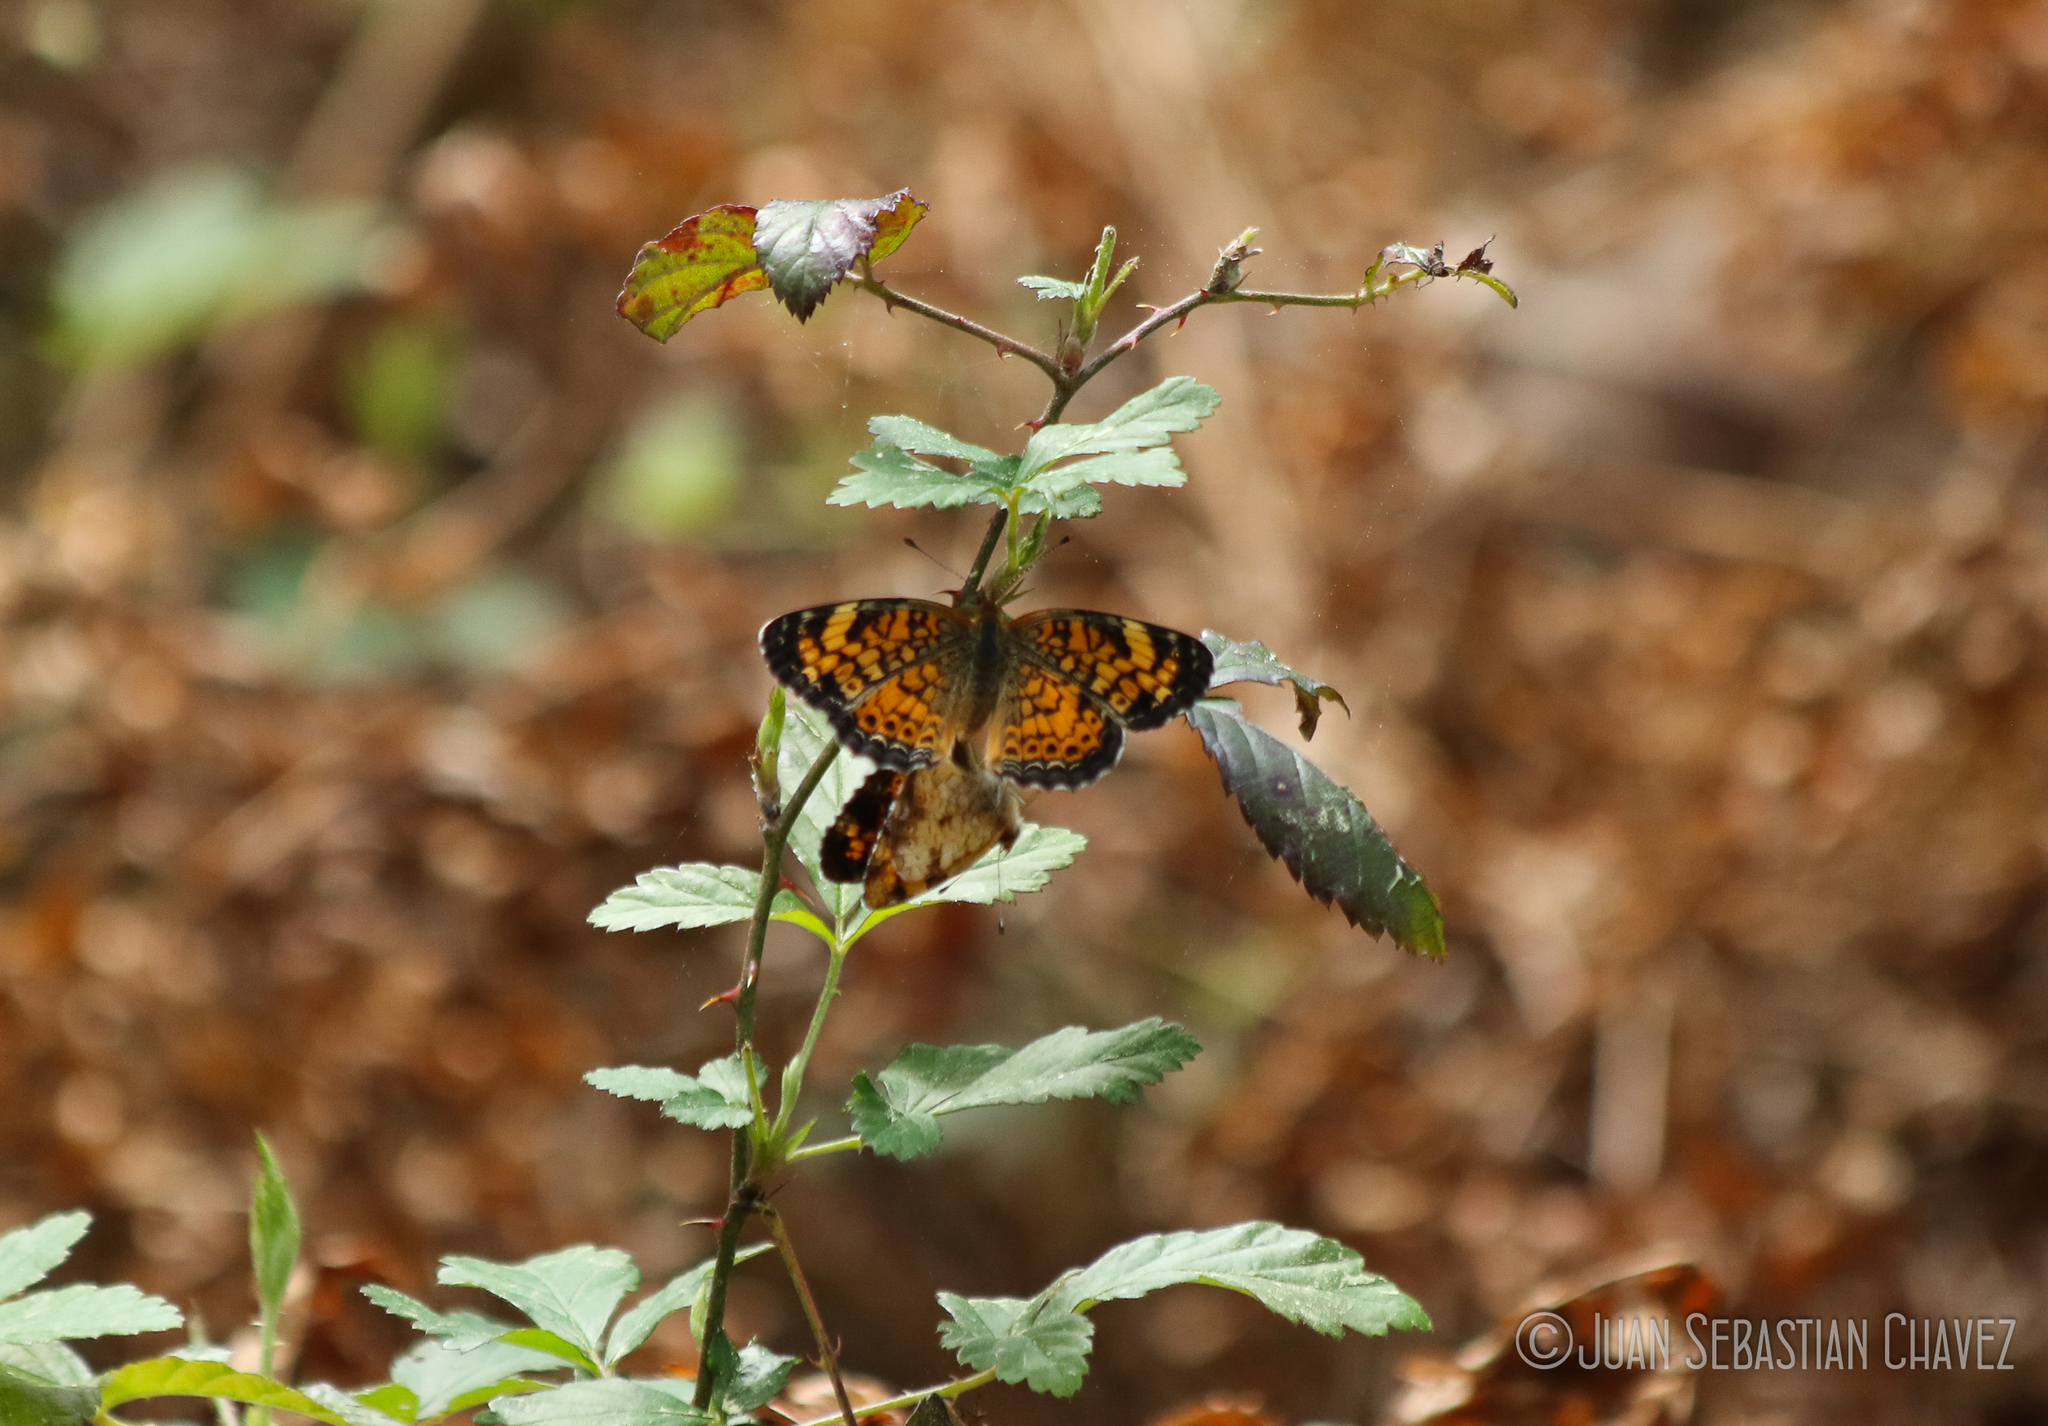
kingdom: Animalia
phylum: Arthropoda
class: Insecta
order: Lepidoptera
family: Nymphalidae
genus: Phyciodes
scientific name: Phyciodes tharos
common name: Pearl crescent
